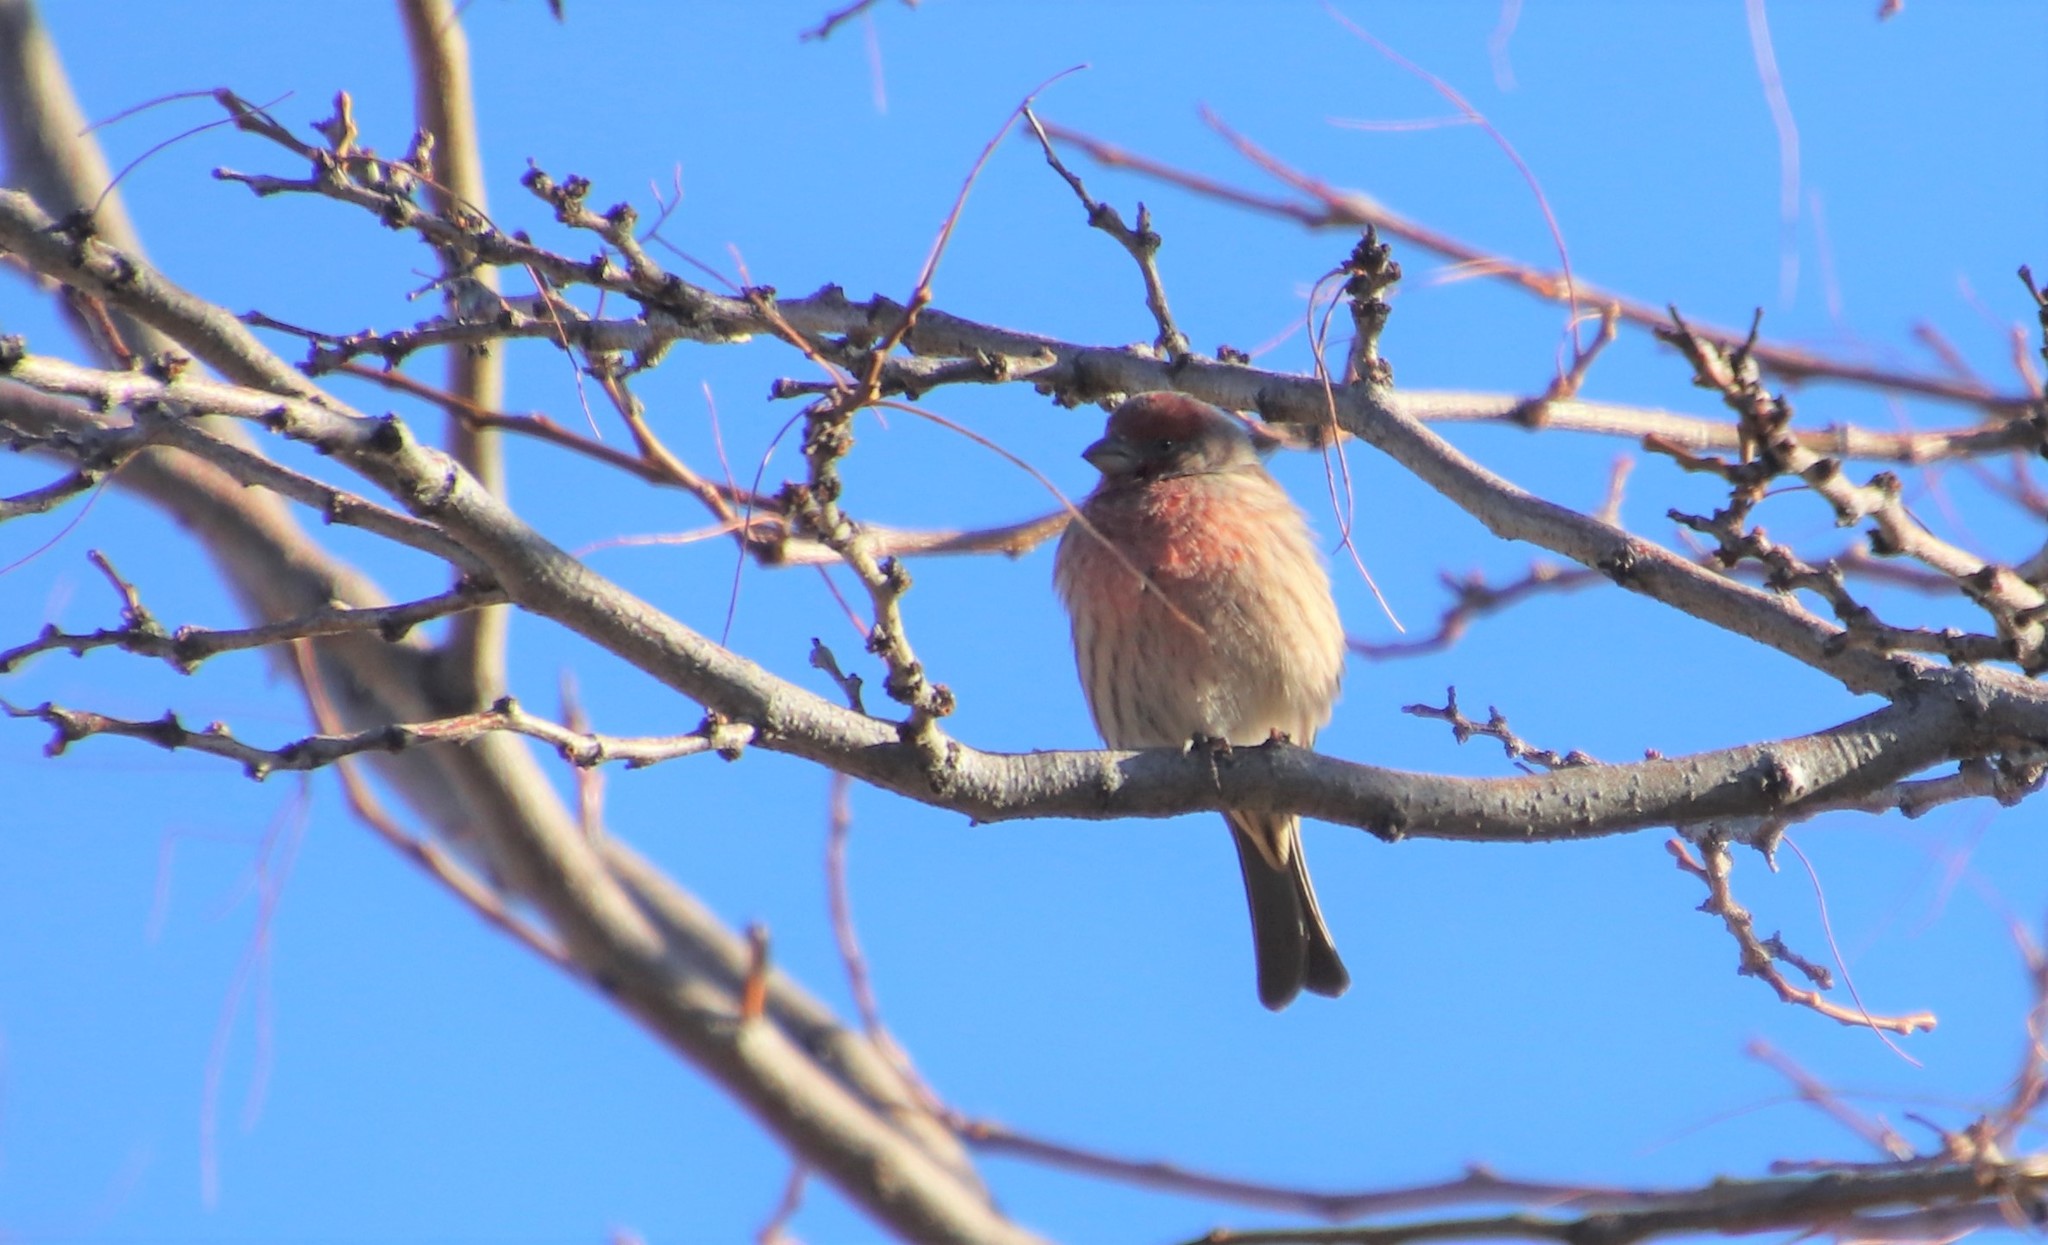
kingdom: Animalia
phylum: Chordata
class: Aves
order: Passeriformes
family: Fringillidae
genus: Haemorhous
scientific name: Haemorhous mexicanus
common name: House finch
